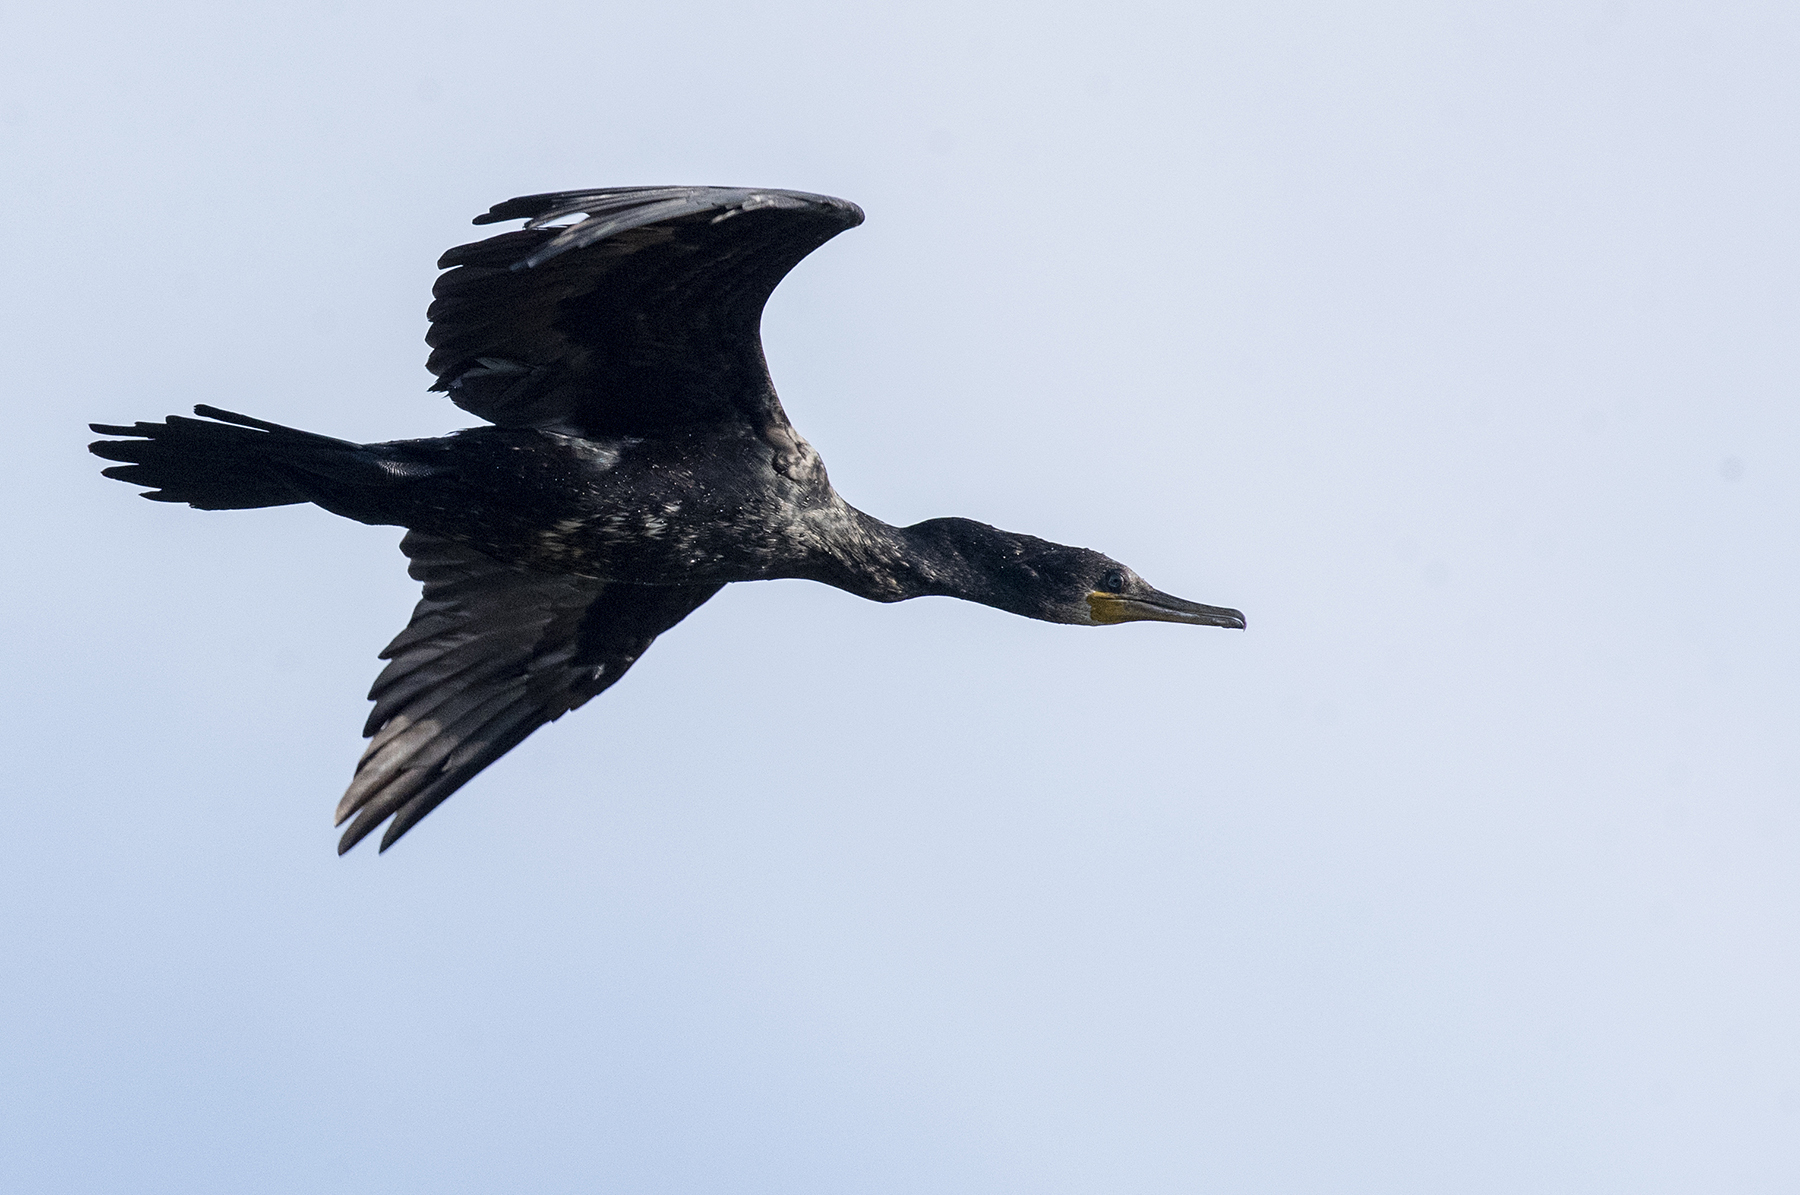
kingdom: Animalia
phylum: Chordata
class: Aves
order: Suliformes
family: Phalacrocoracidae
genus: Phalacrocorax
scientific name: Phalacrocorax fuscicollis
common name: Indian cormorant
